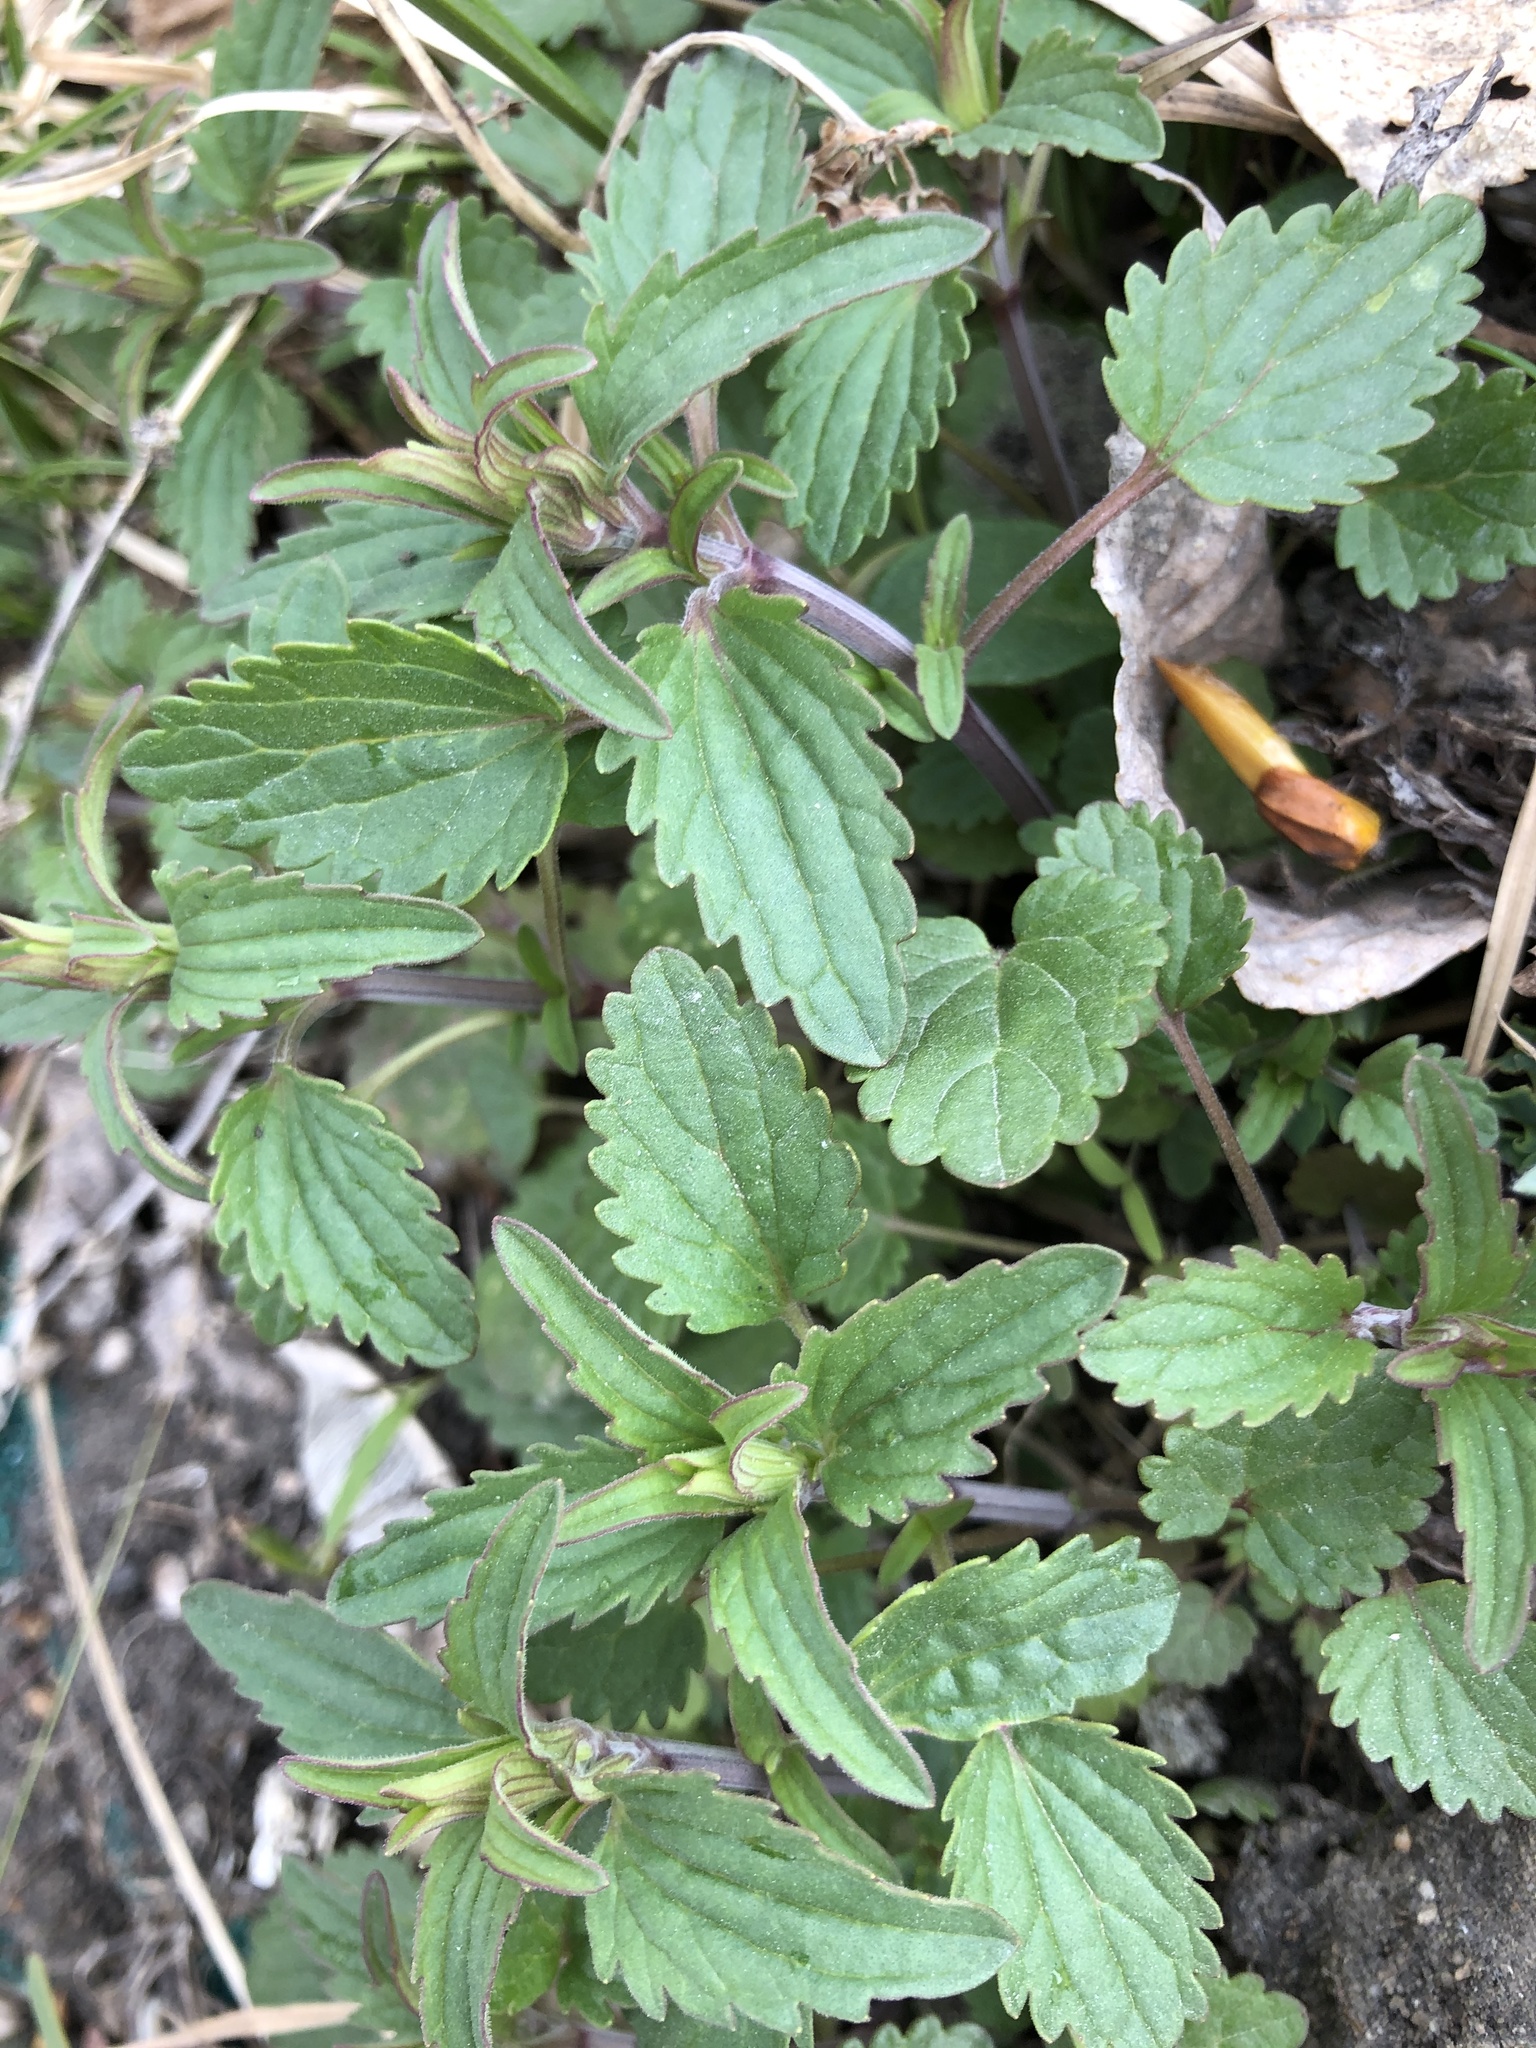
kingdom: Plantae
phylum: Tracheophyta
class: Magnoliopsida
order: Lamiales
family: Lamiaceae
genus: Dracocephalum
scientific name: Dracocephalum thymiflorum
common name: Thymeleaf dragonhead
